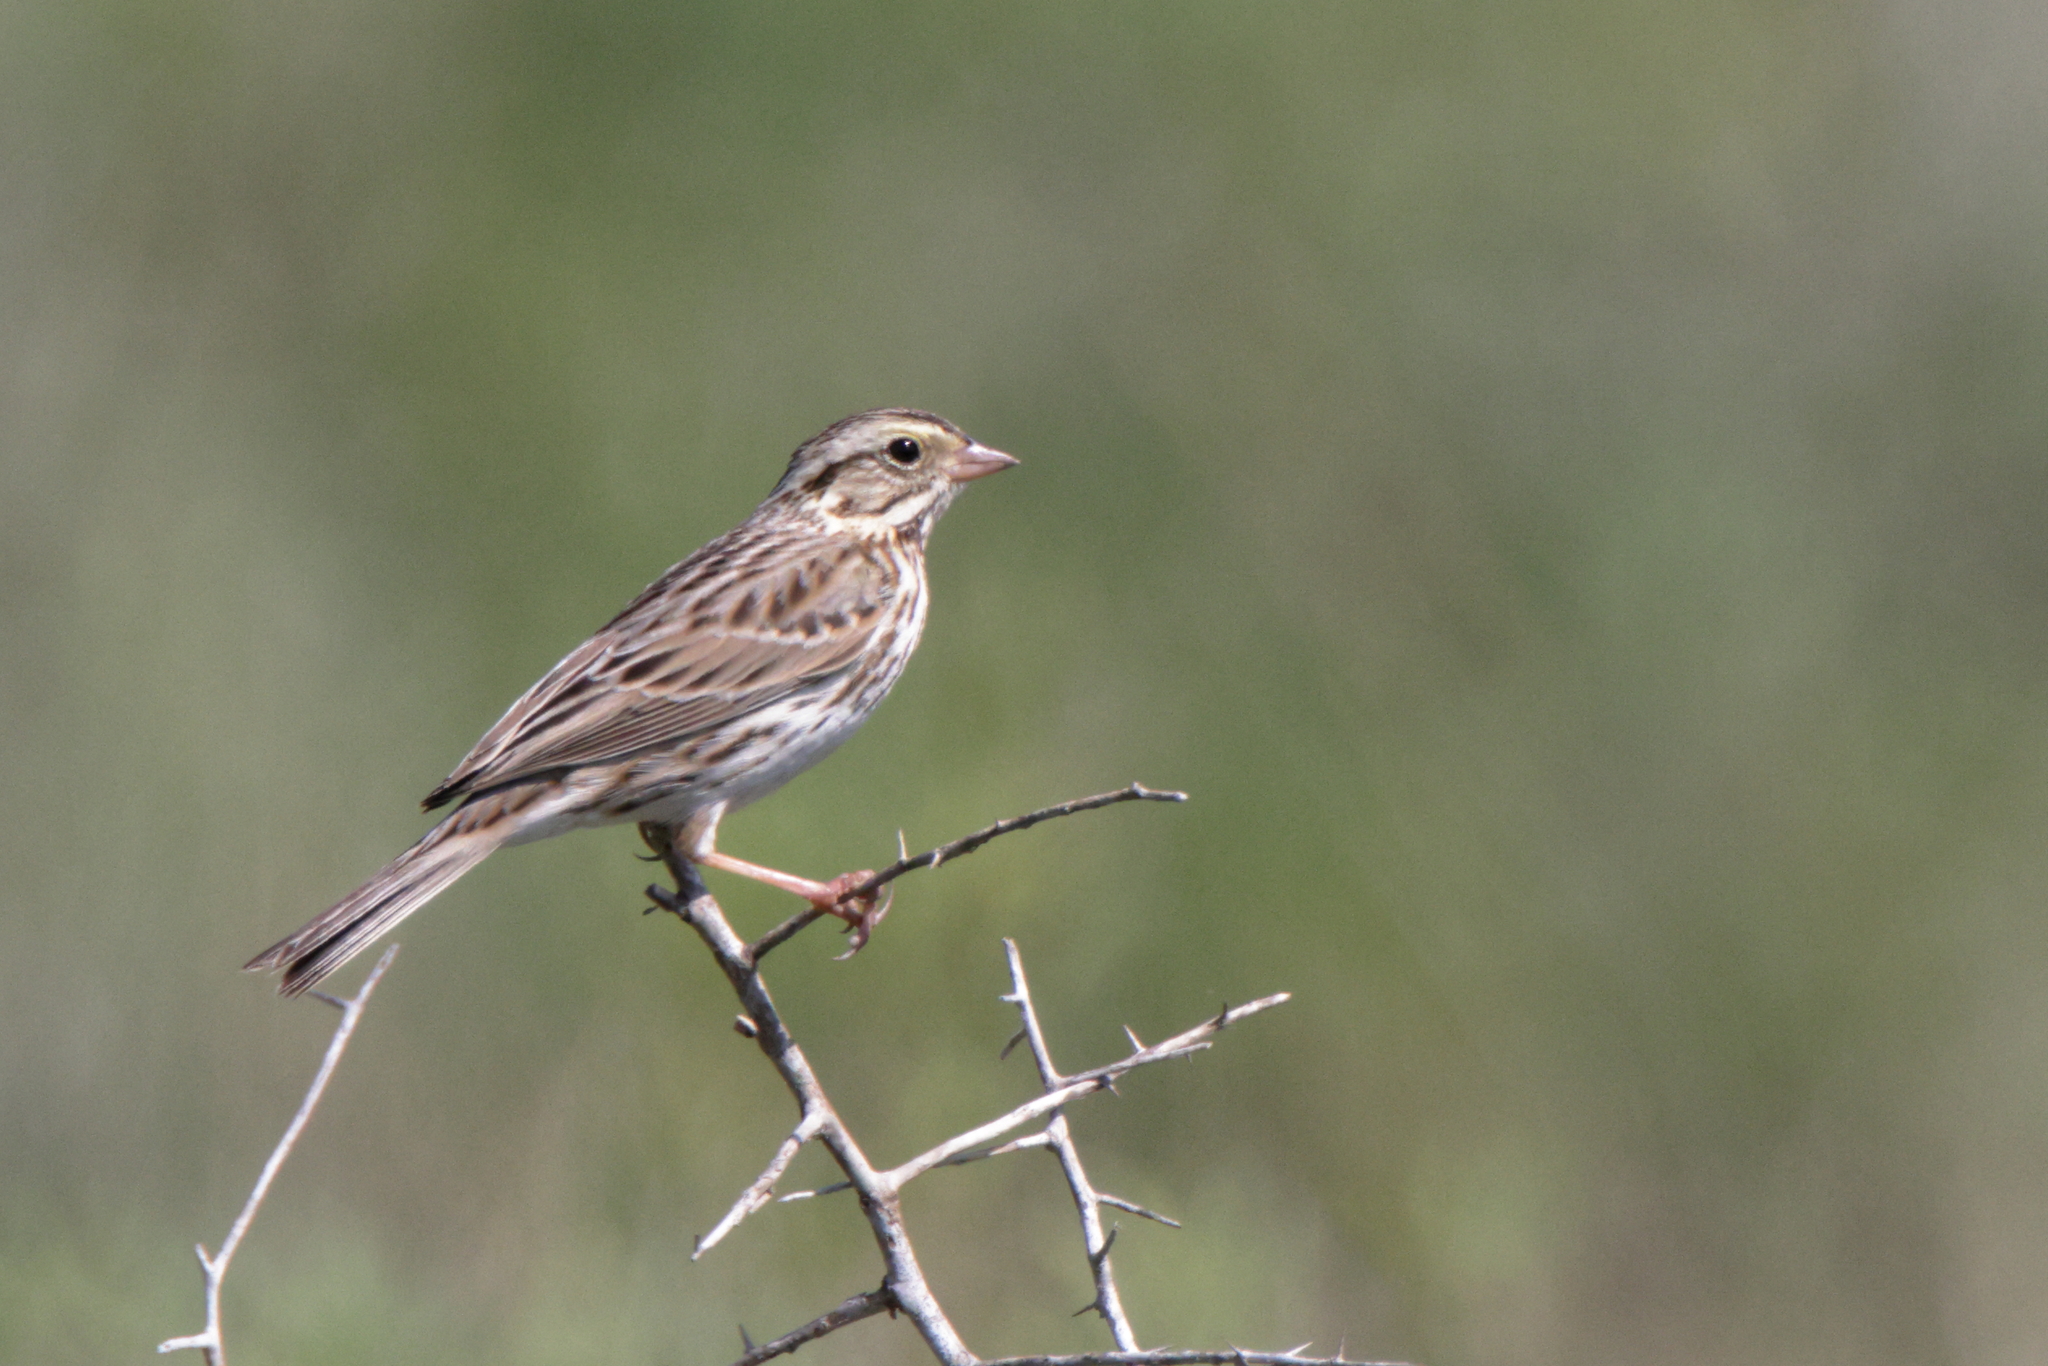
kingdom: Animalia
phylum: Chordata
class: Aves
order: Passeriformes
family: Passerellidae
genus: Passerculus
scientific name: Passerculus sandwichensis
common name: Savannah sparrow
